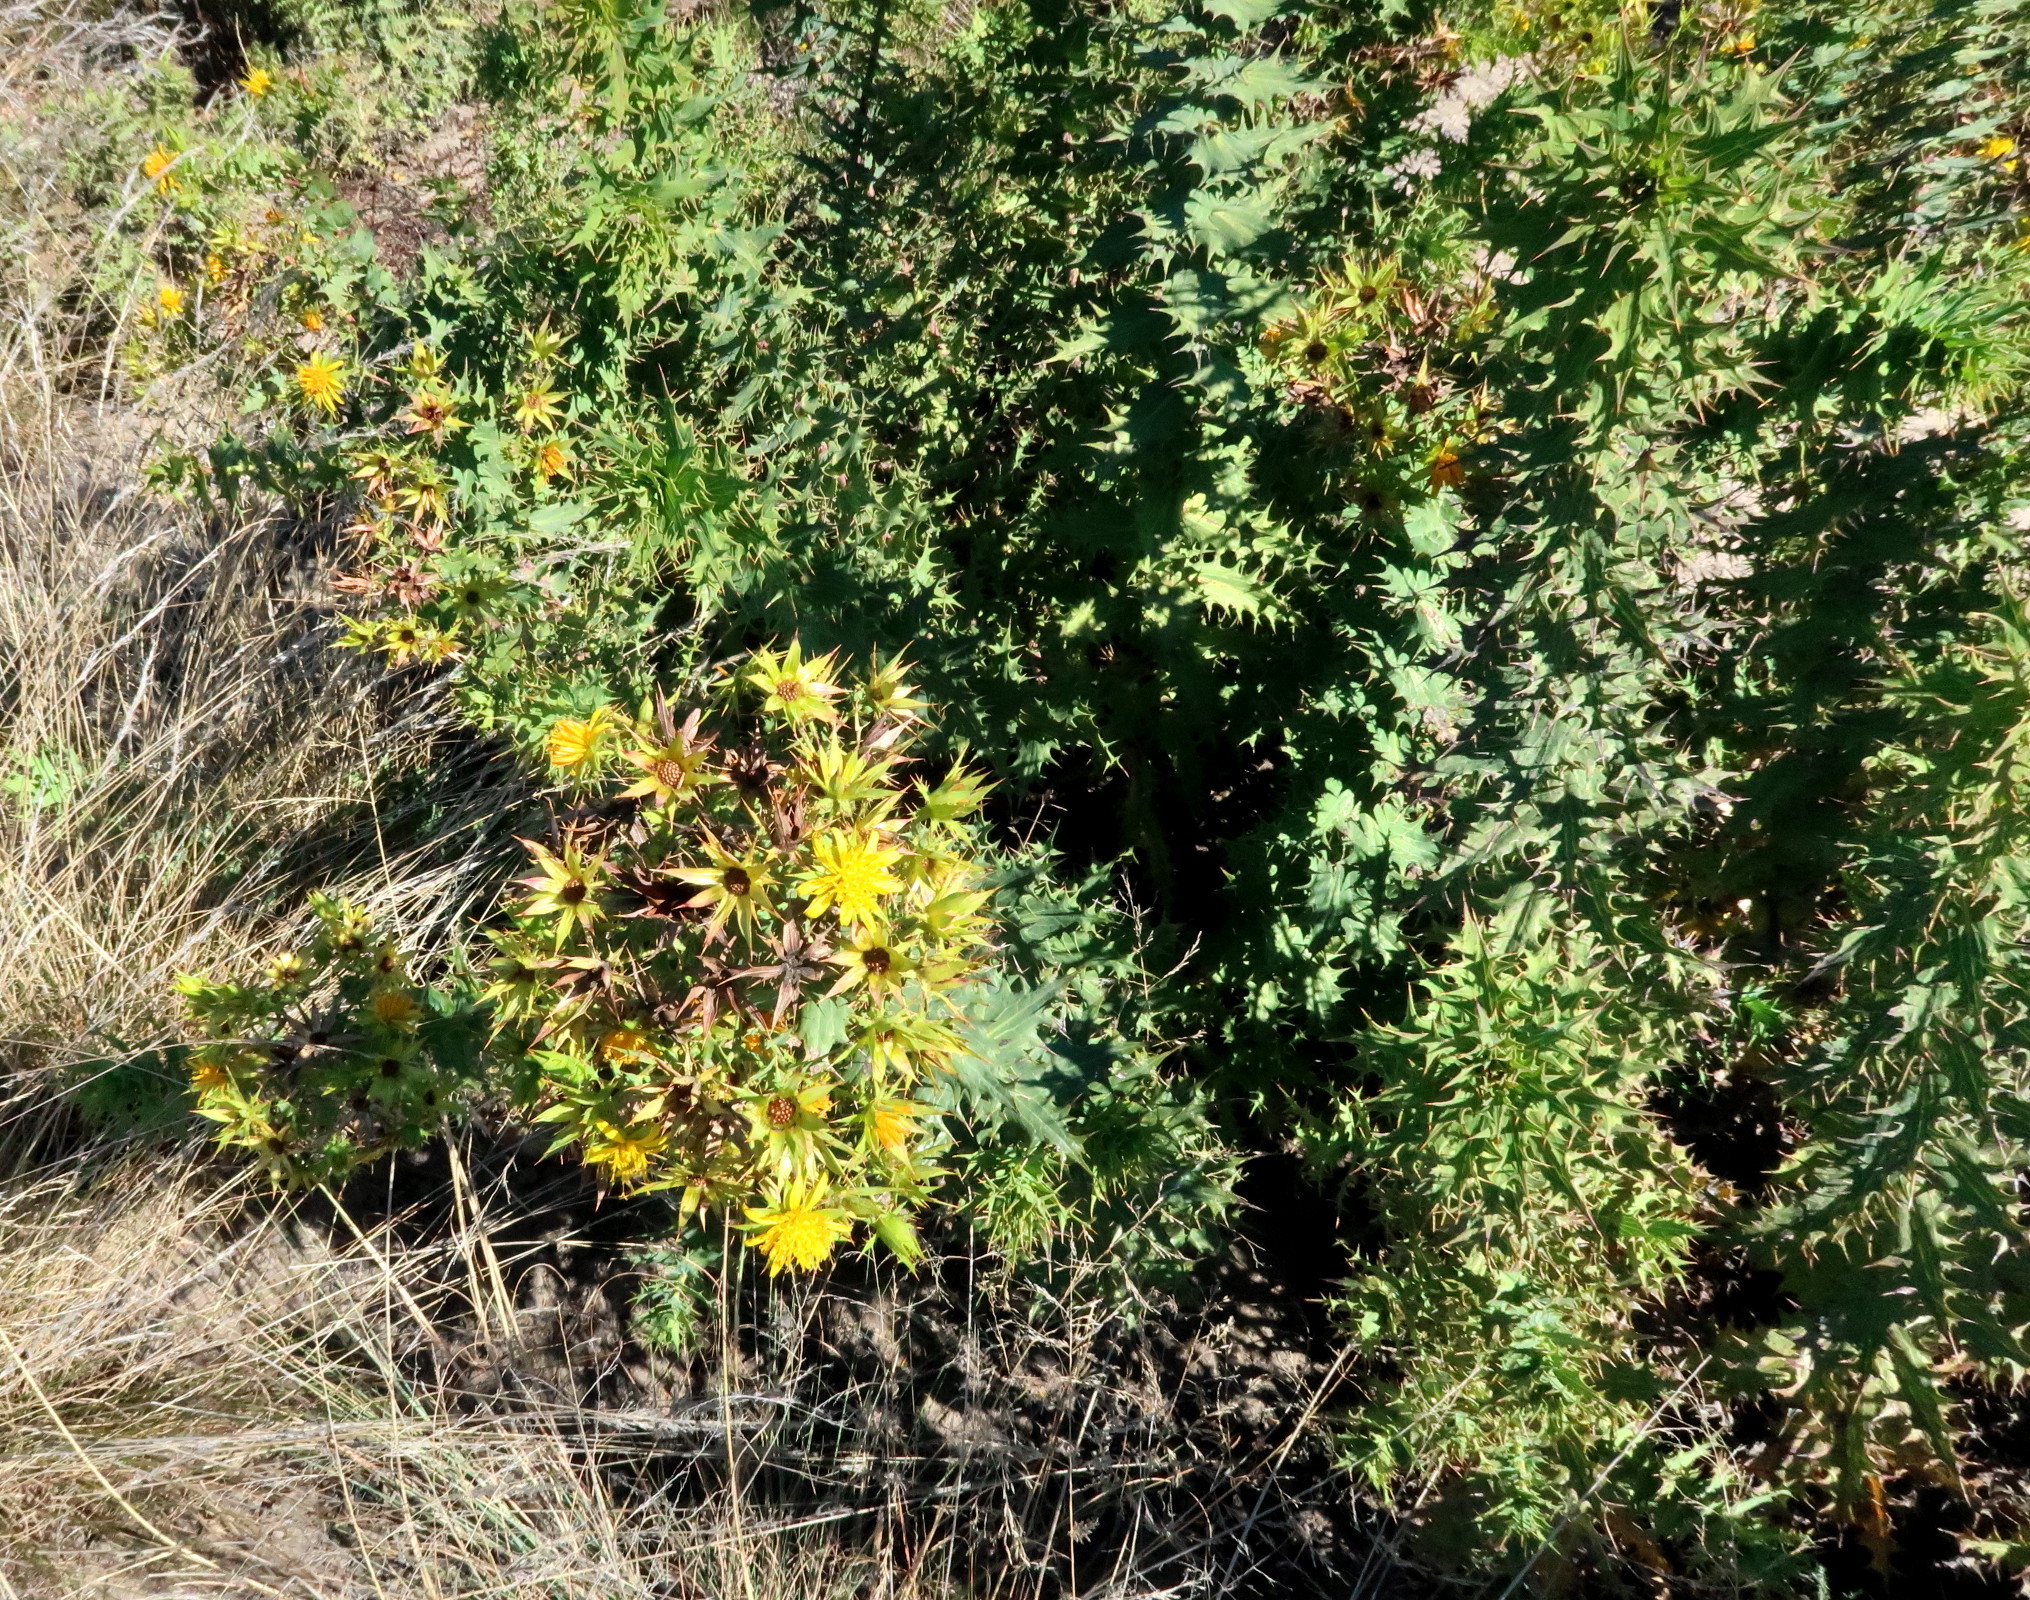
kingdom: Plantae
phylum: Tracheophyta
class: Magnoliopsida
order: Asterales
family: Asteraceae
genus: Berkheya
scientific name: Berkheya cruciata
